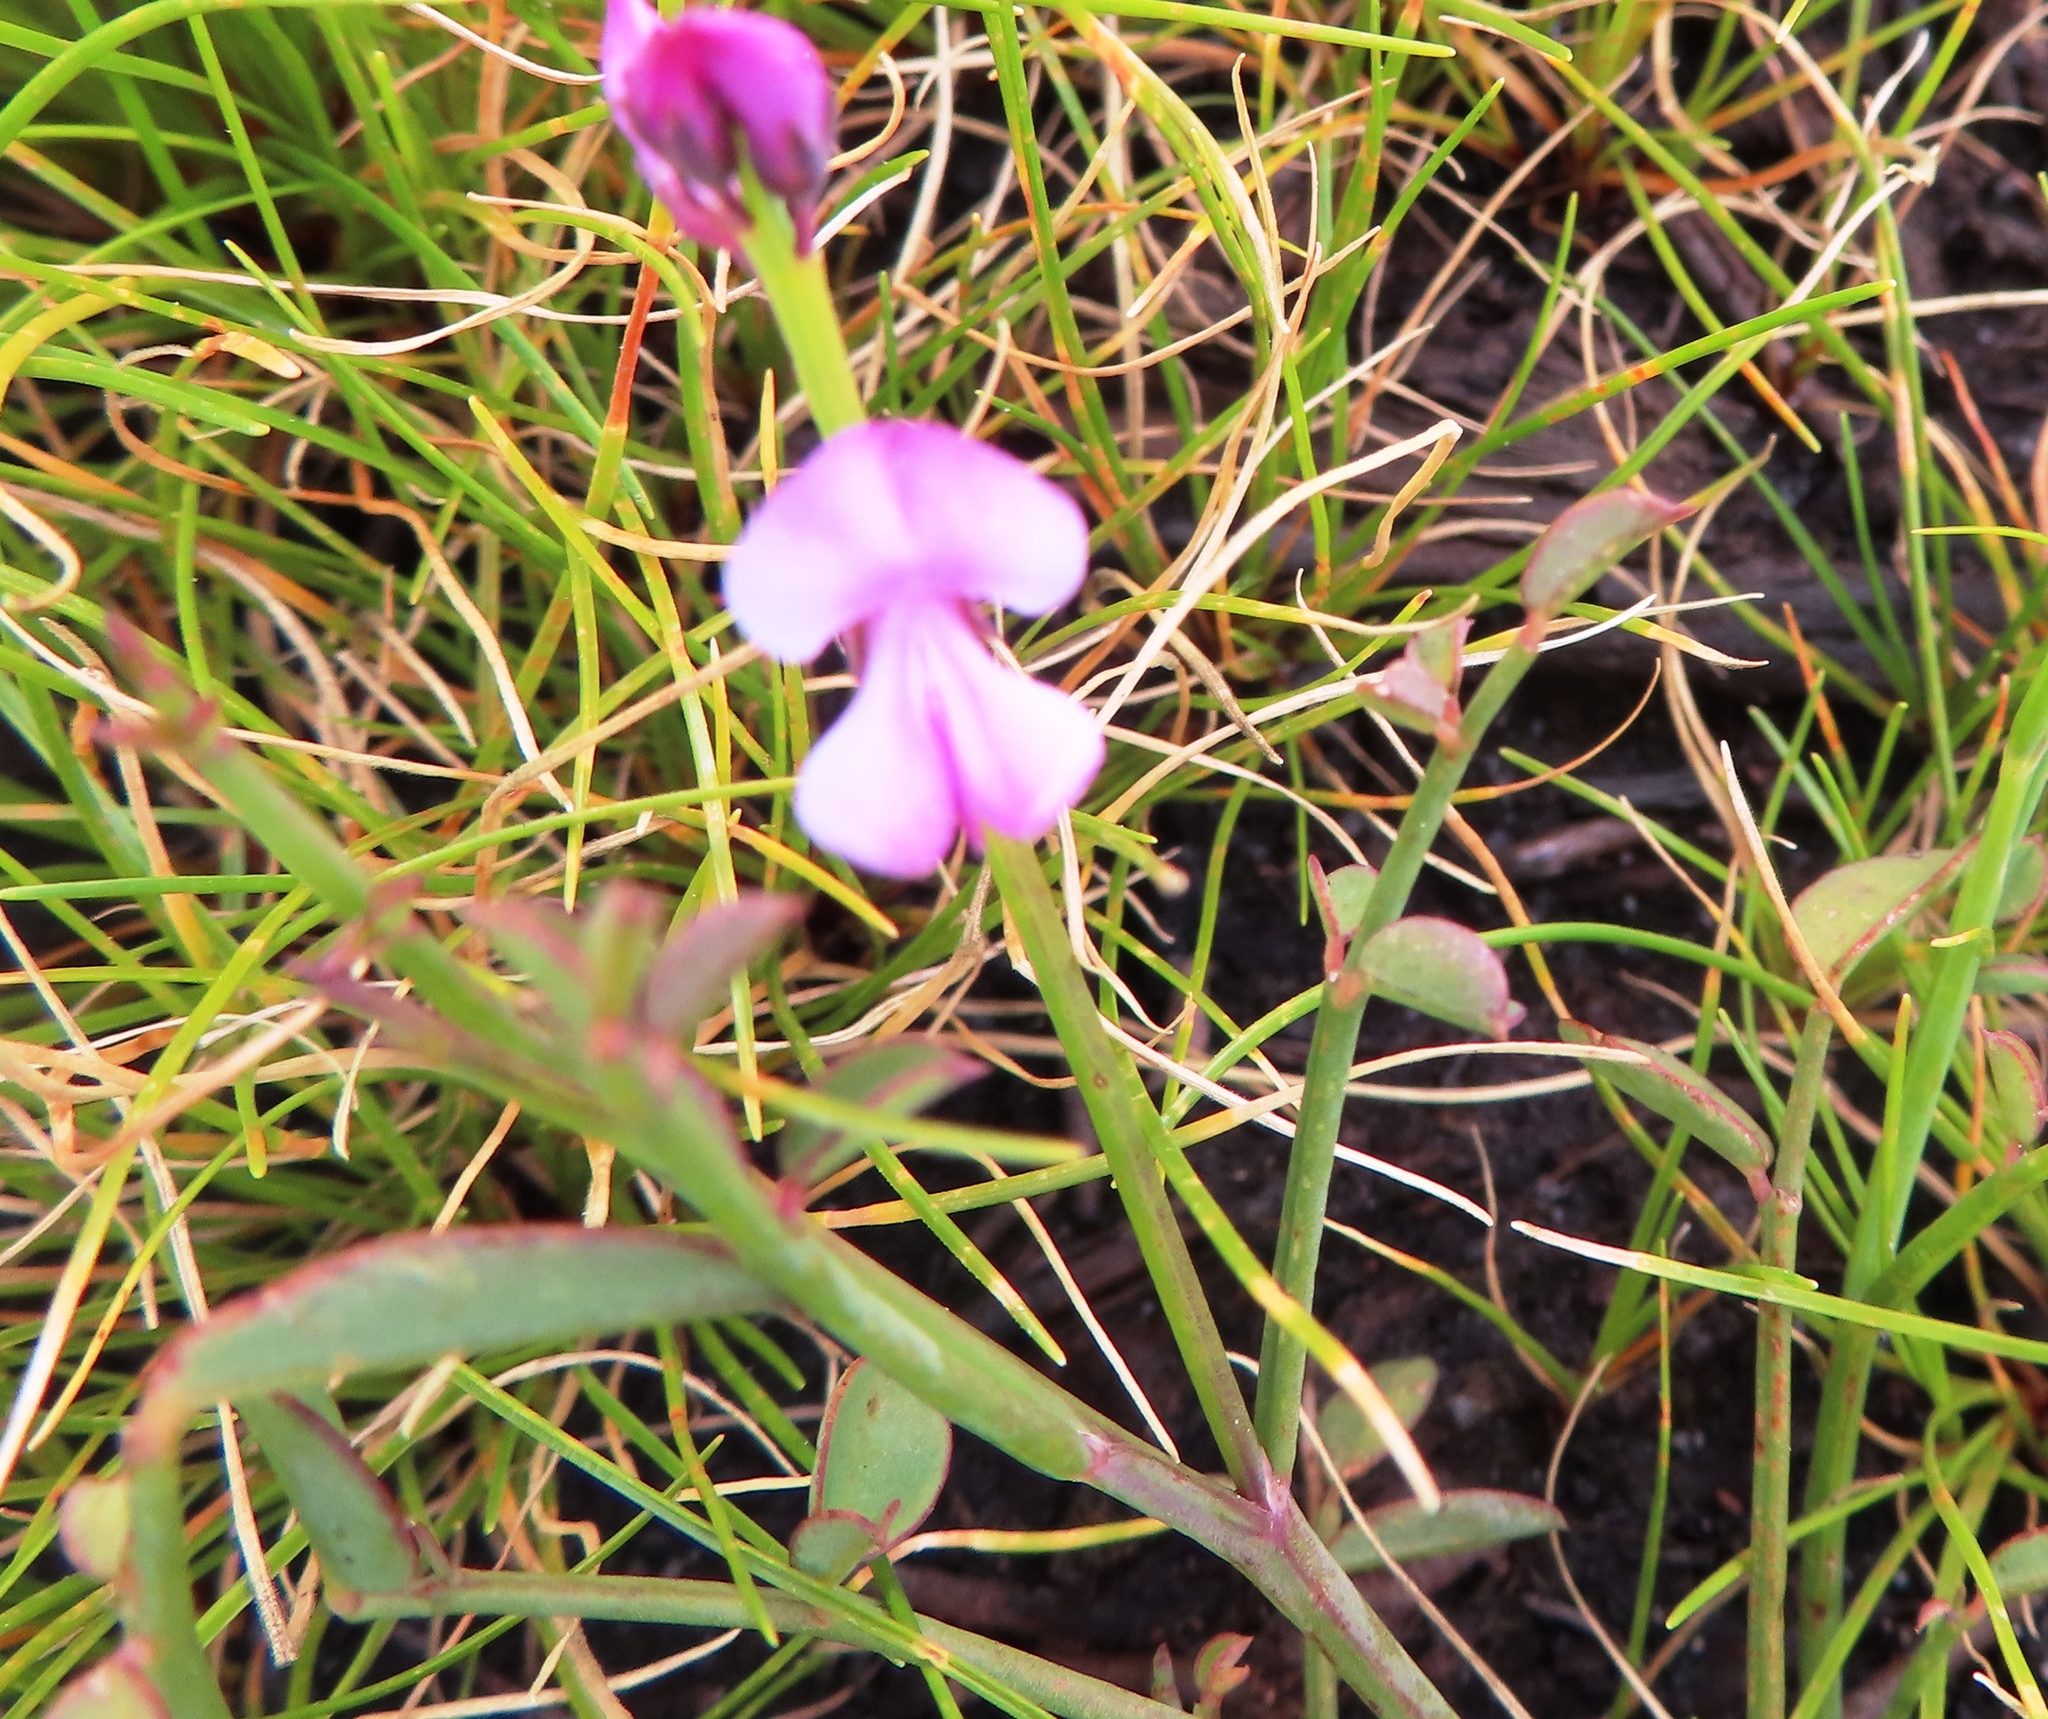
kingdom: Plantae
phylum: Tracheophyta
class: Magnoliopsida
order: Fabales
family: Fabaceae
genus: Indigofera
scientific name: Indigofera ionii
